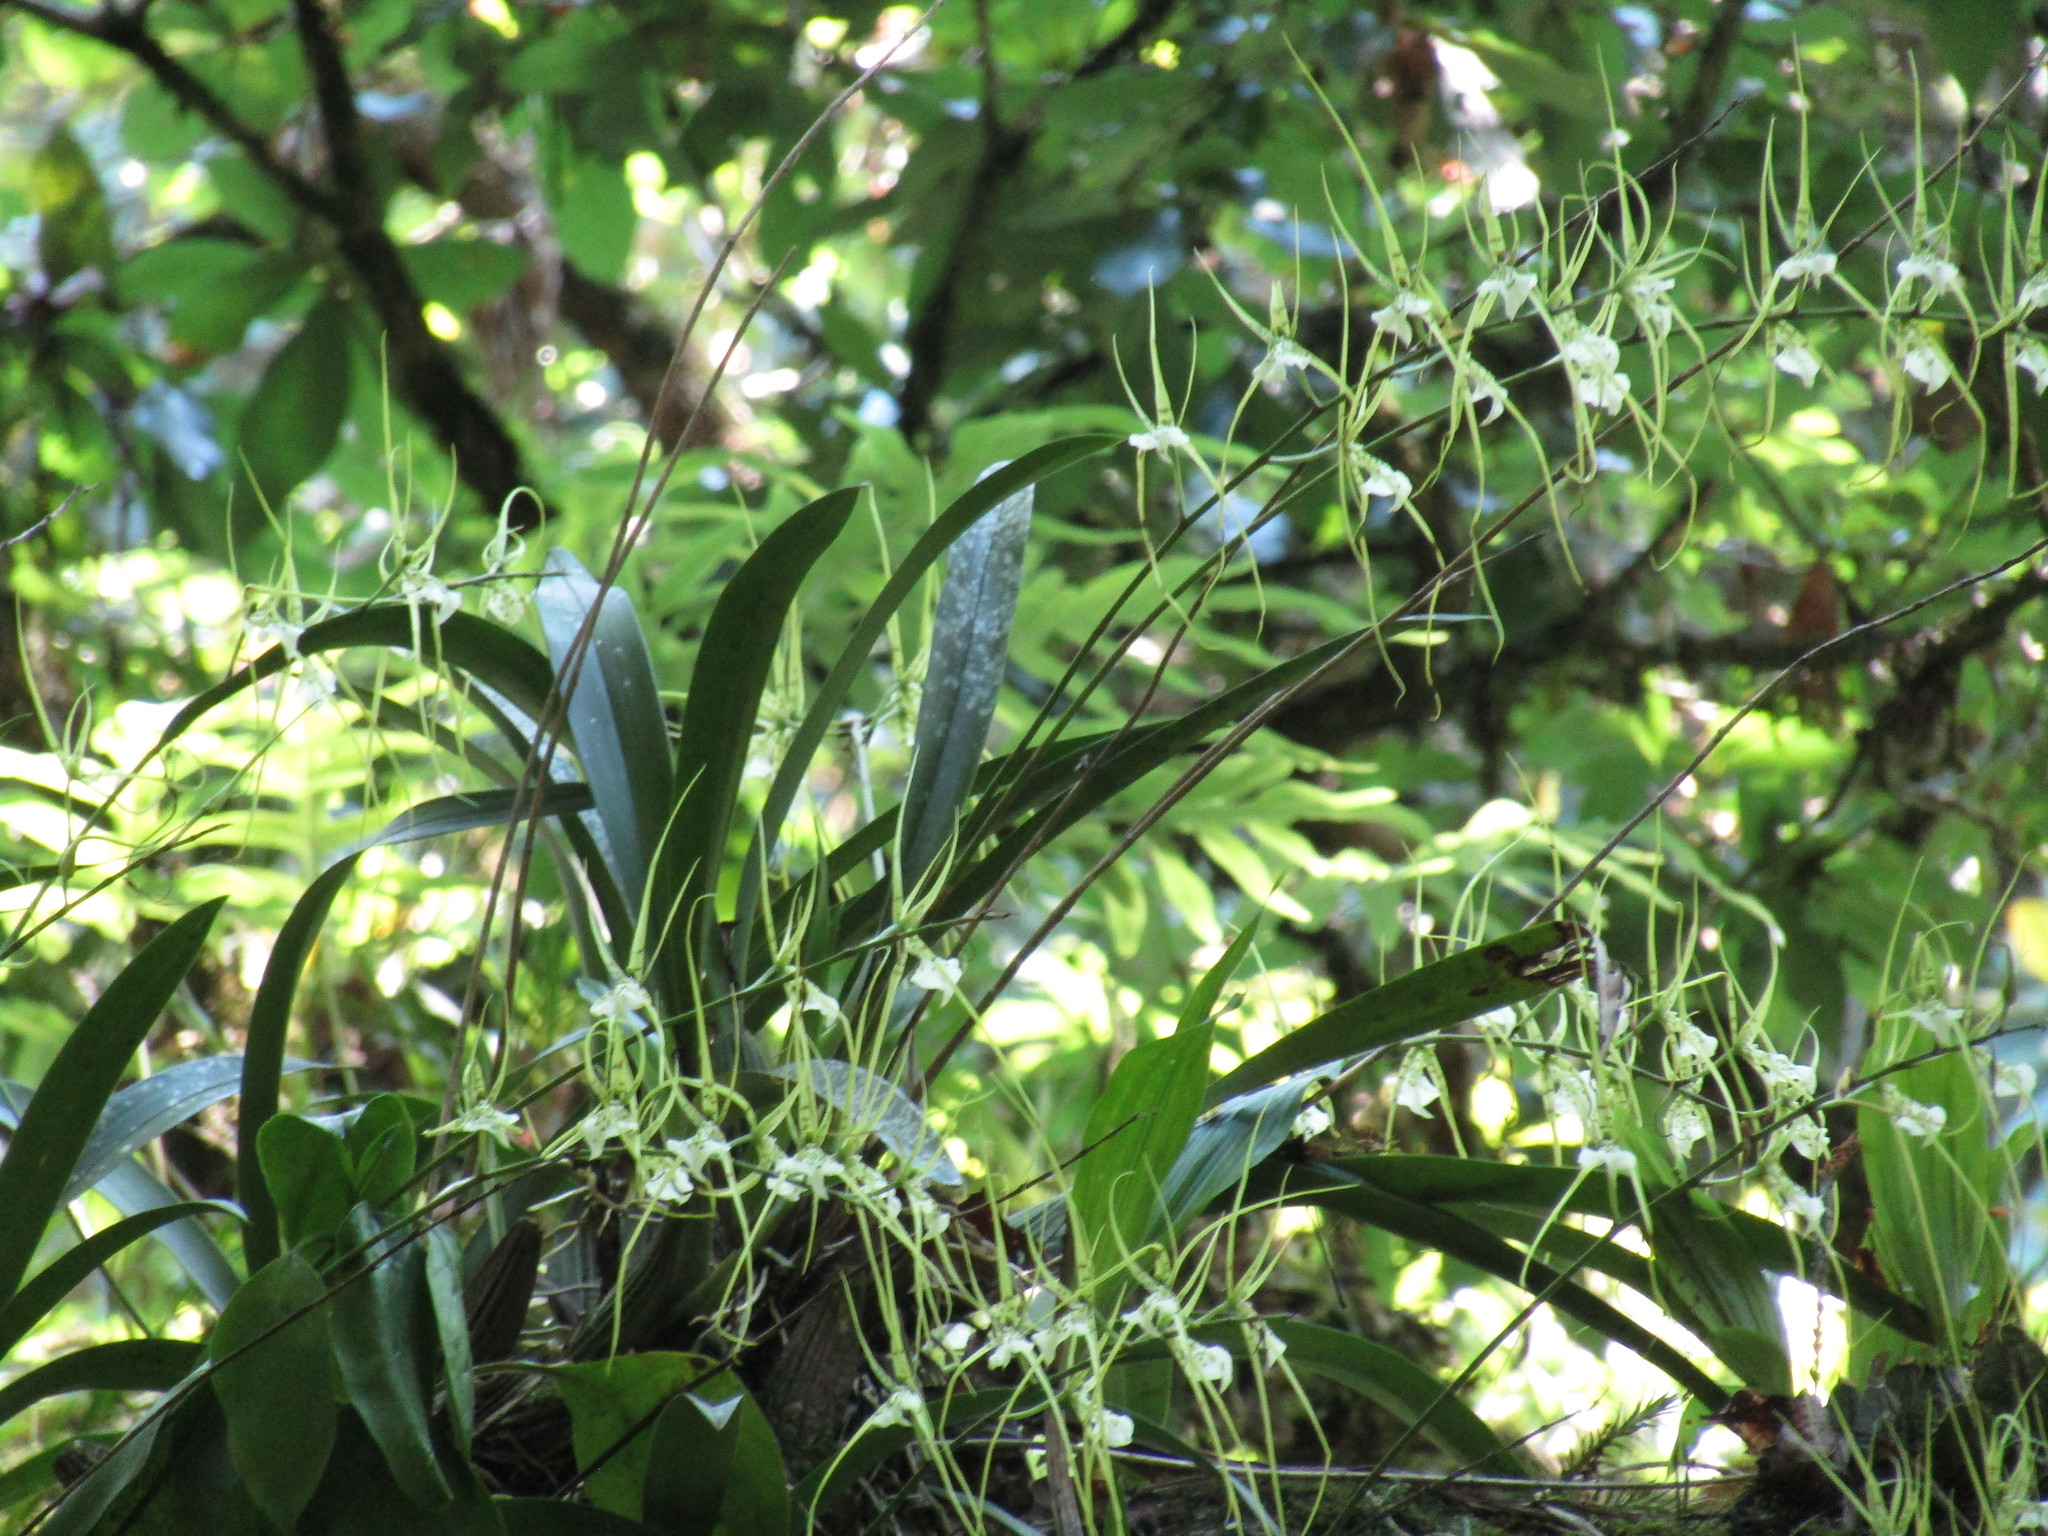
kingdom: Plantae
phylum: Tracheophyta
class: Liliopsida
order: Asparagales
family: Orchidaceae
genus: Brassia
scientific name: Brassia verrucosa
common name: Warty brassia
